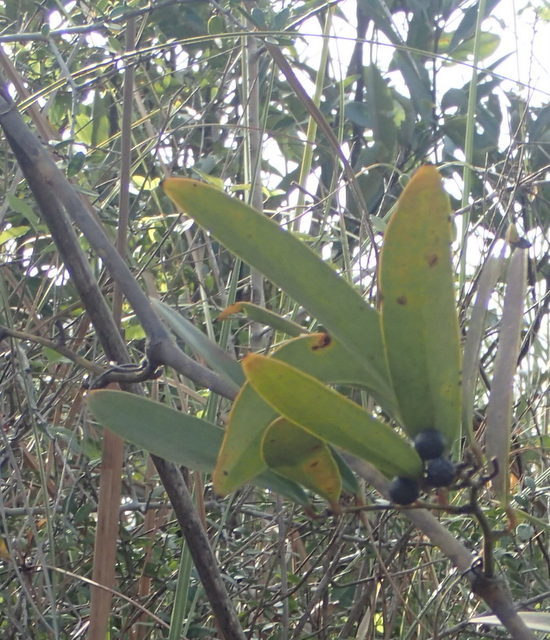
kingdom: Plantae
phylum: Tracheophyta
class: Liliopsida
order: Liliales
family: Smilacaceae
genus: Smilax
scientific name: Smilax laurifolia
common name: Bamboovine
